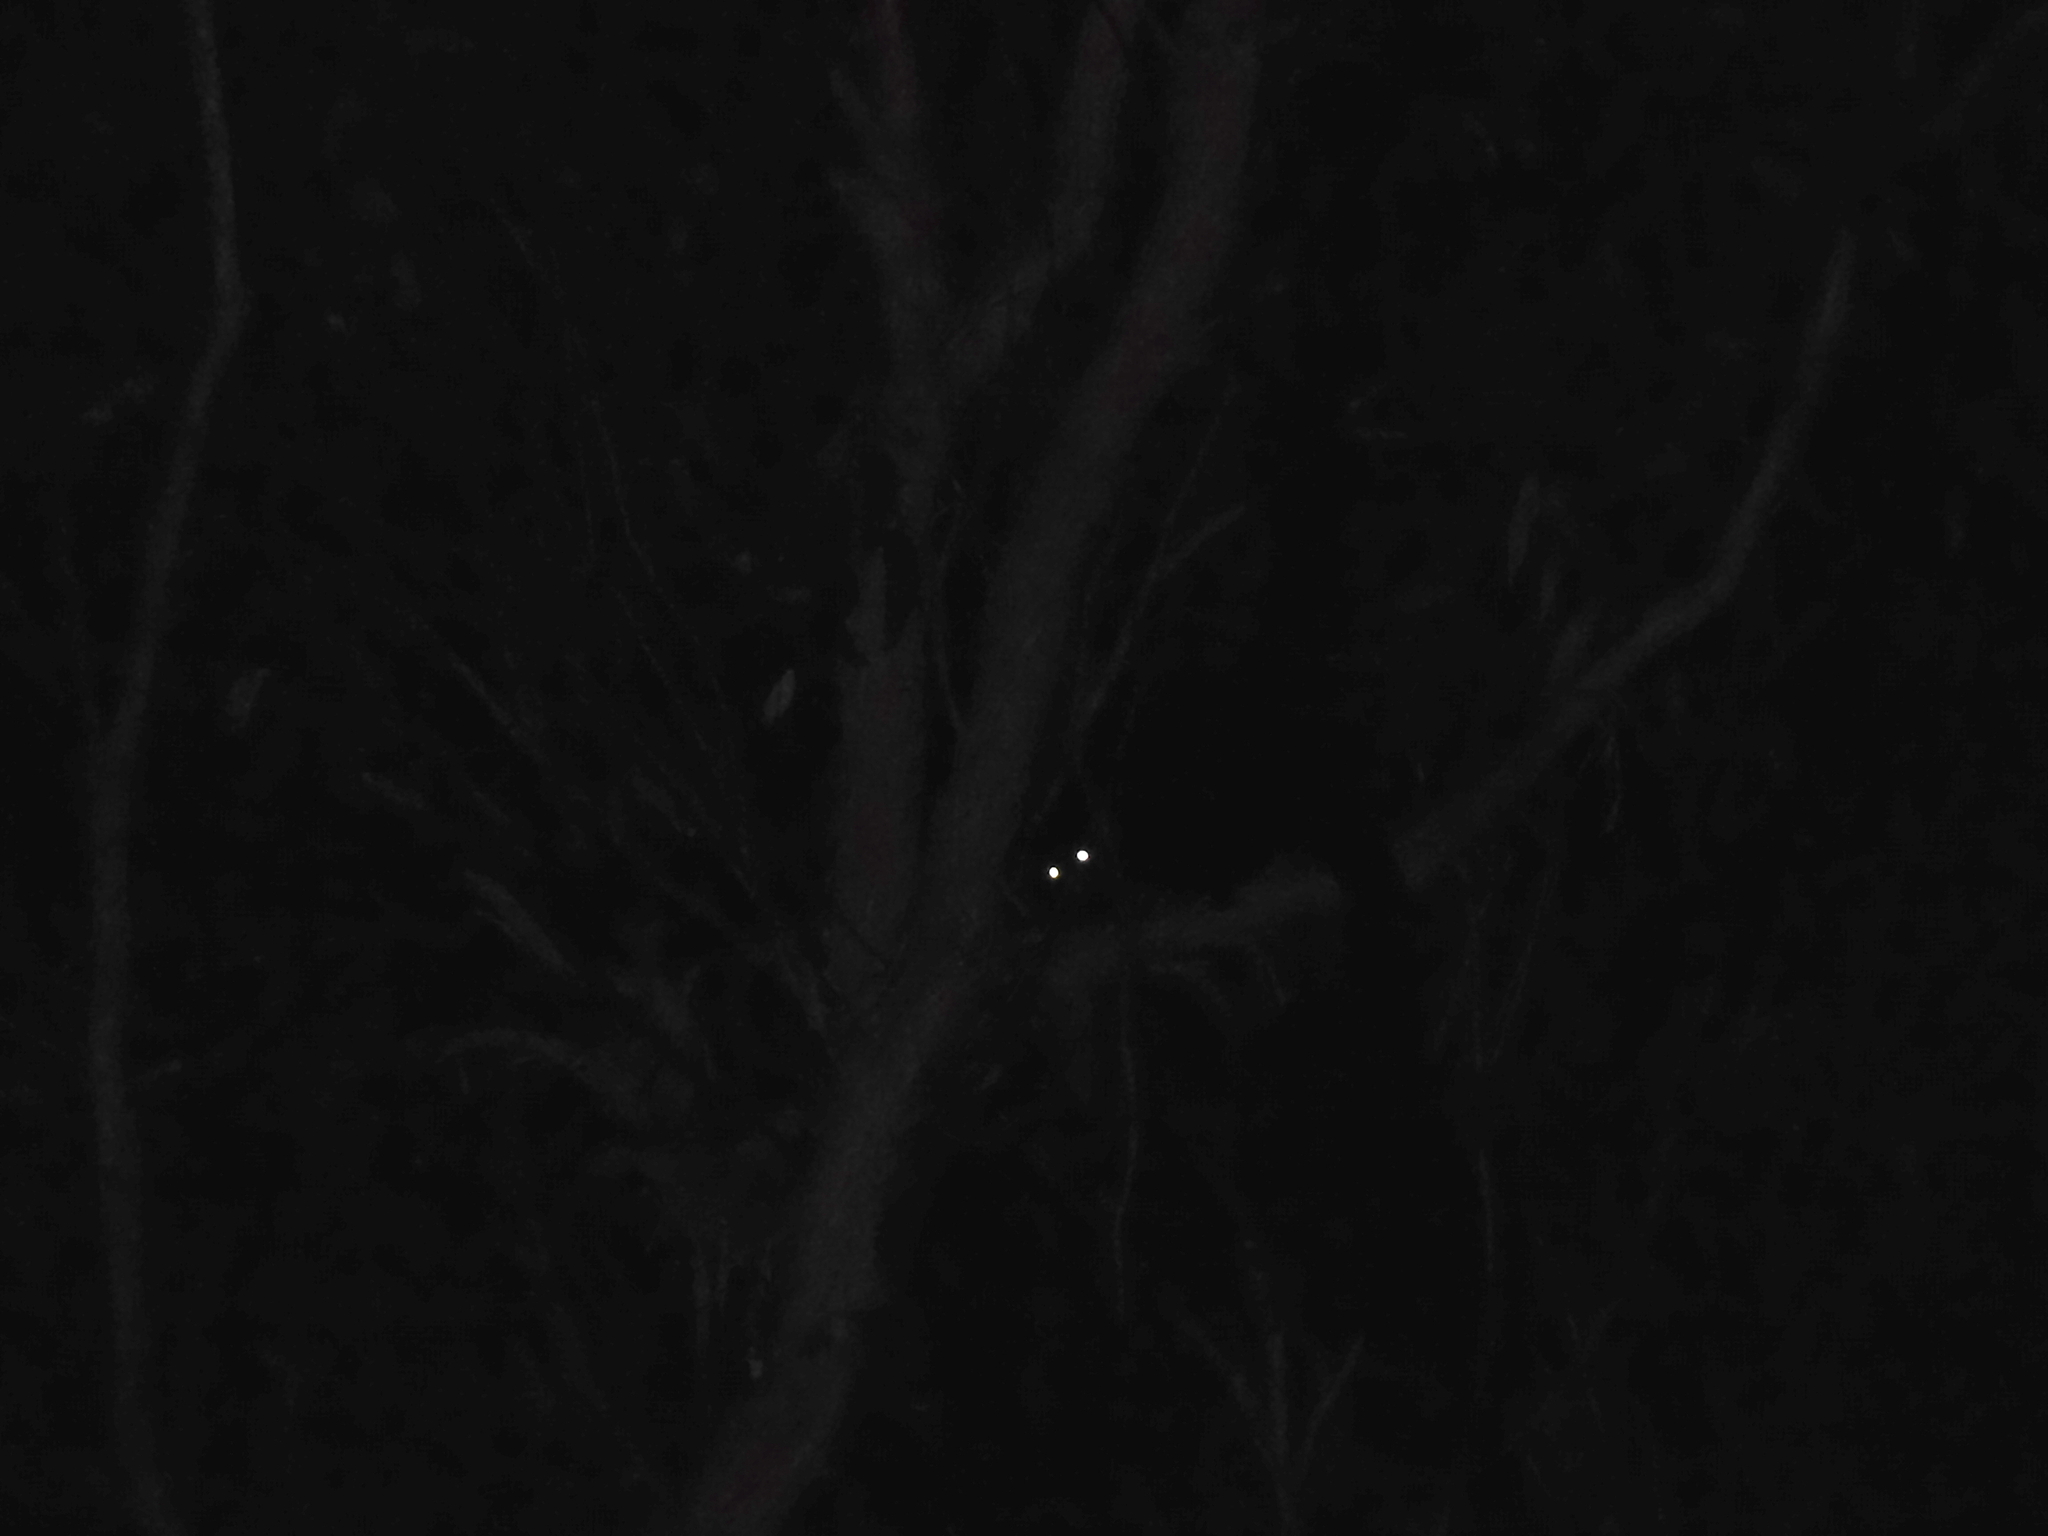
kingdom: Animalia
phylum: Chordata
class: Mammalia
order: Diprotodontia
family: Pseudocheiridae
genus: Petauroides
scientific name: Petauroides volans
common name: Greater glider
